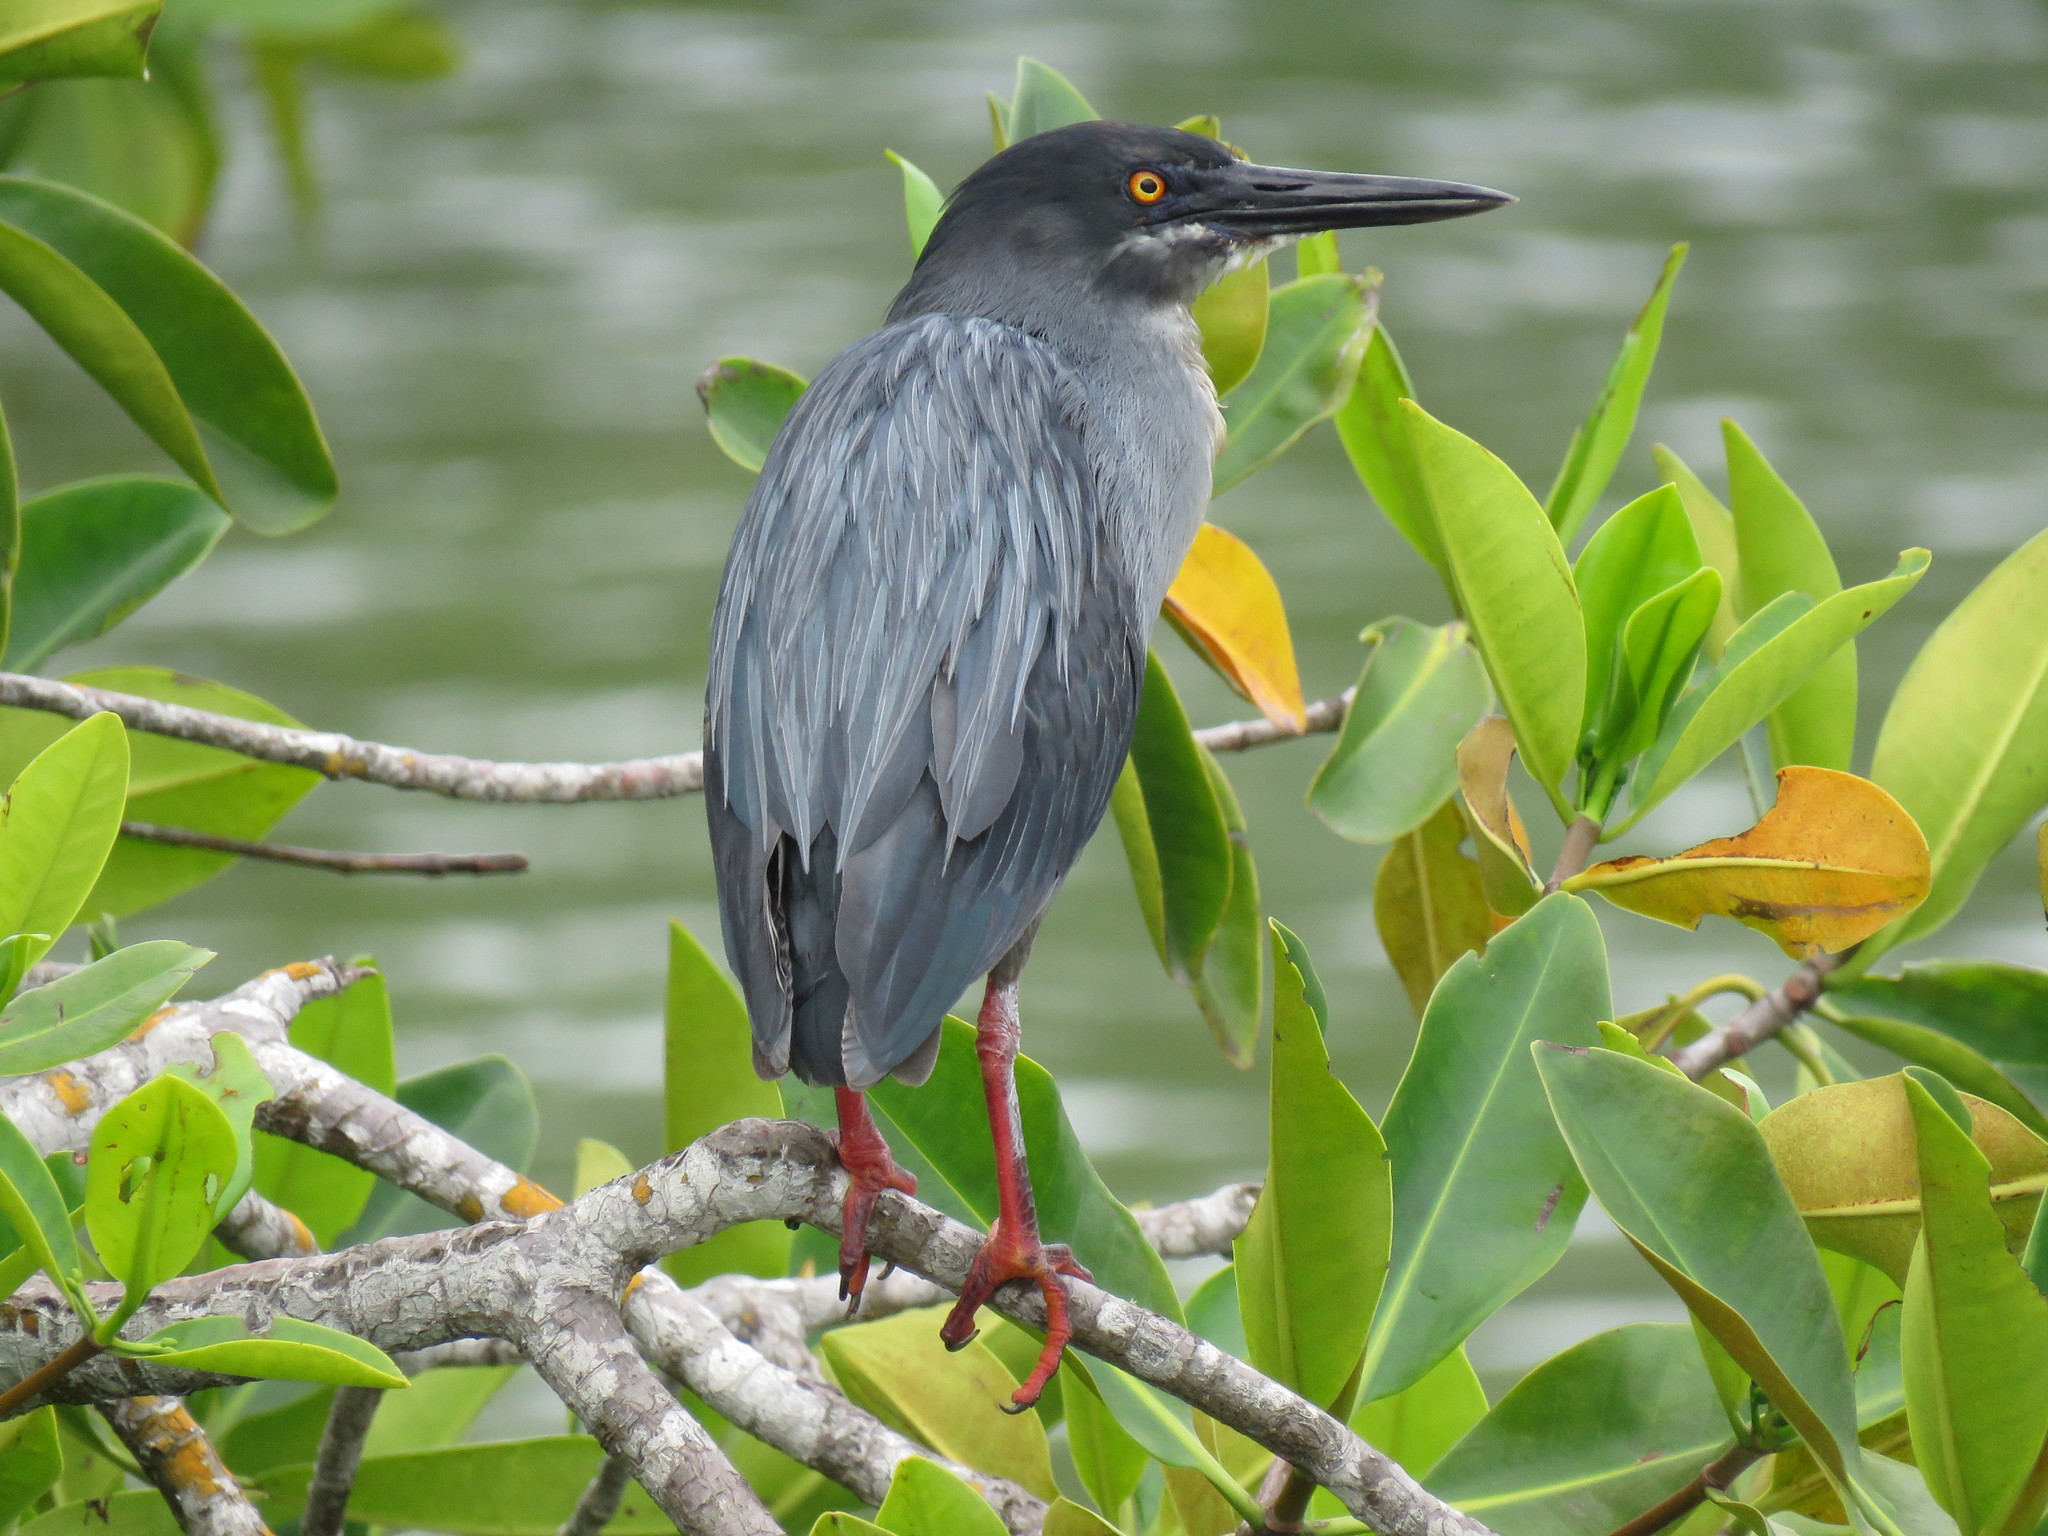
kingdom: Animalia
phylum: Chordata
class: Aves
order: Pelecaniformes
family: Ardeidae
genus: Butorides
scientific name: Butorides striata
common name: Striated heron
